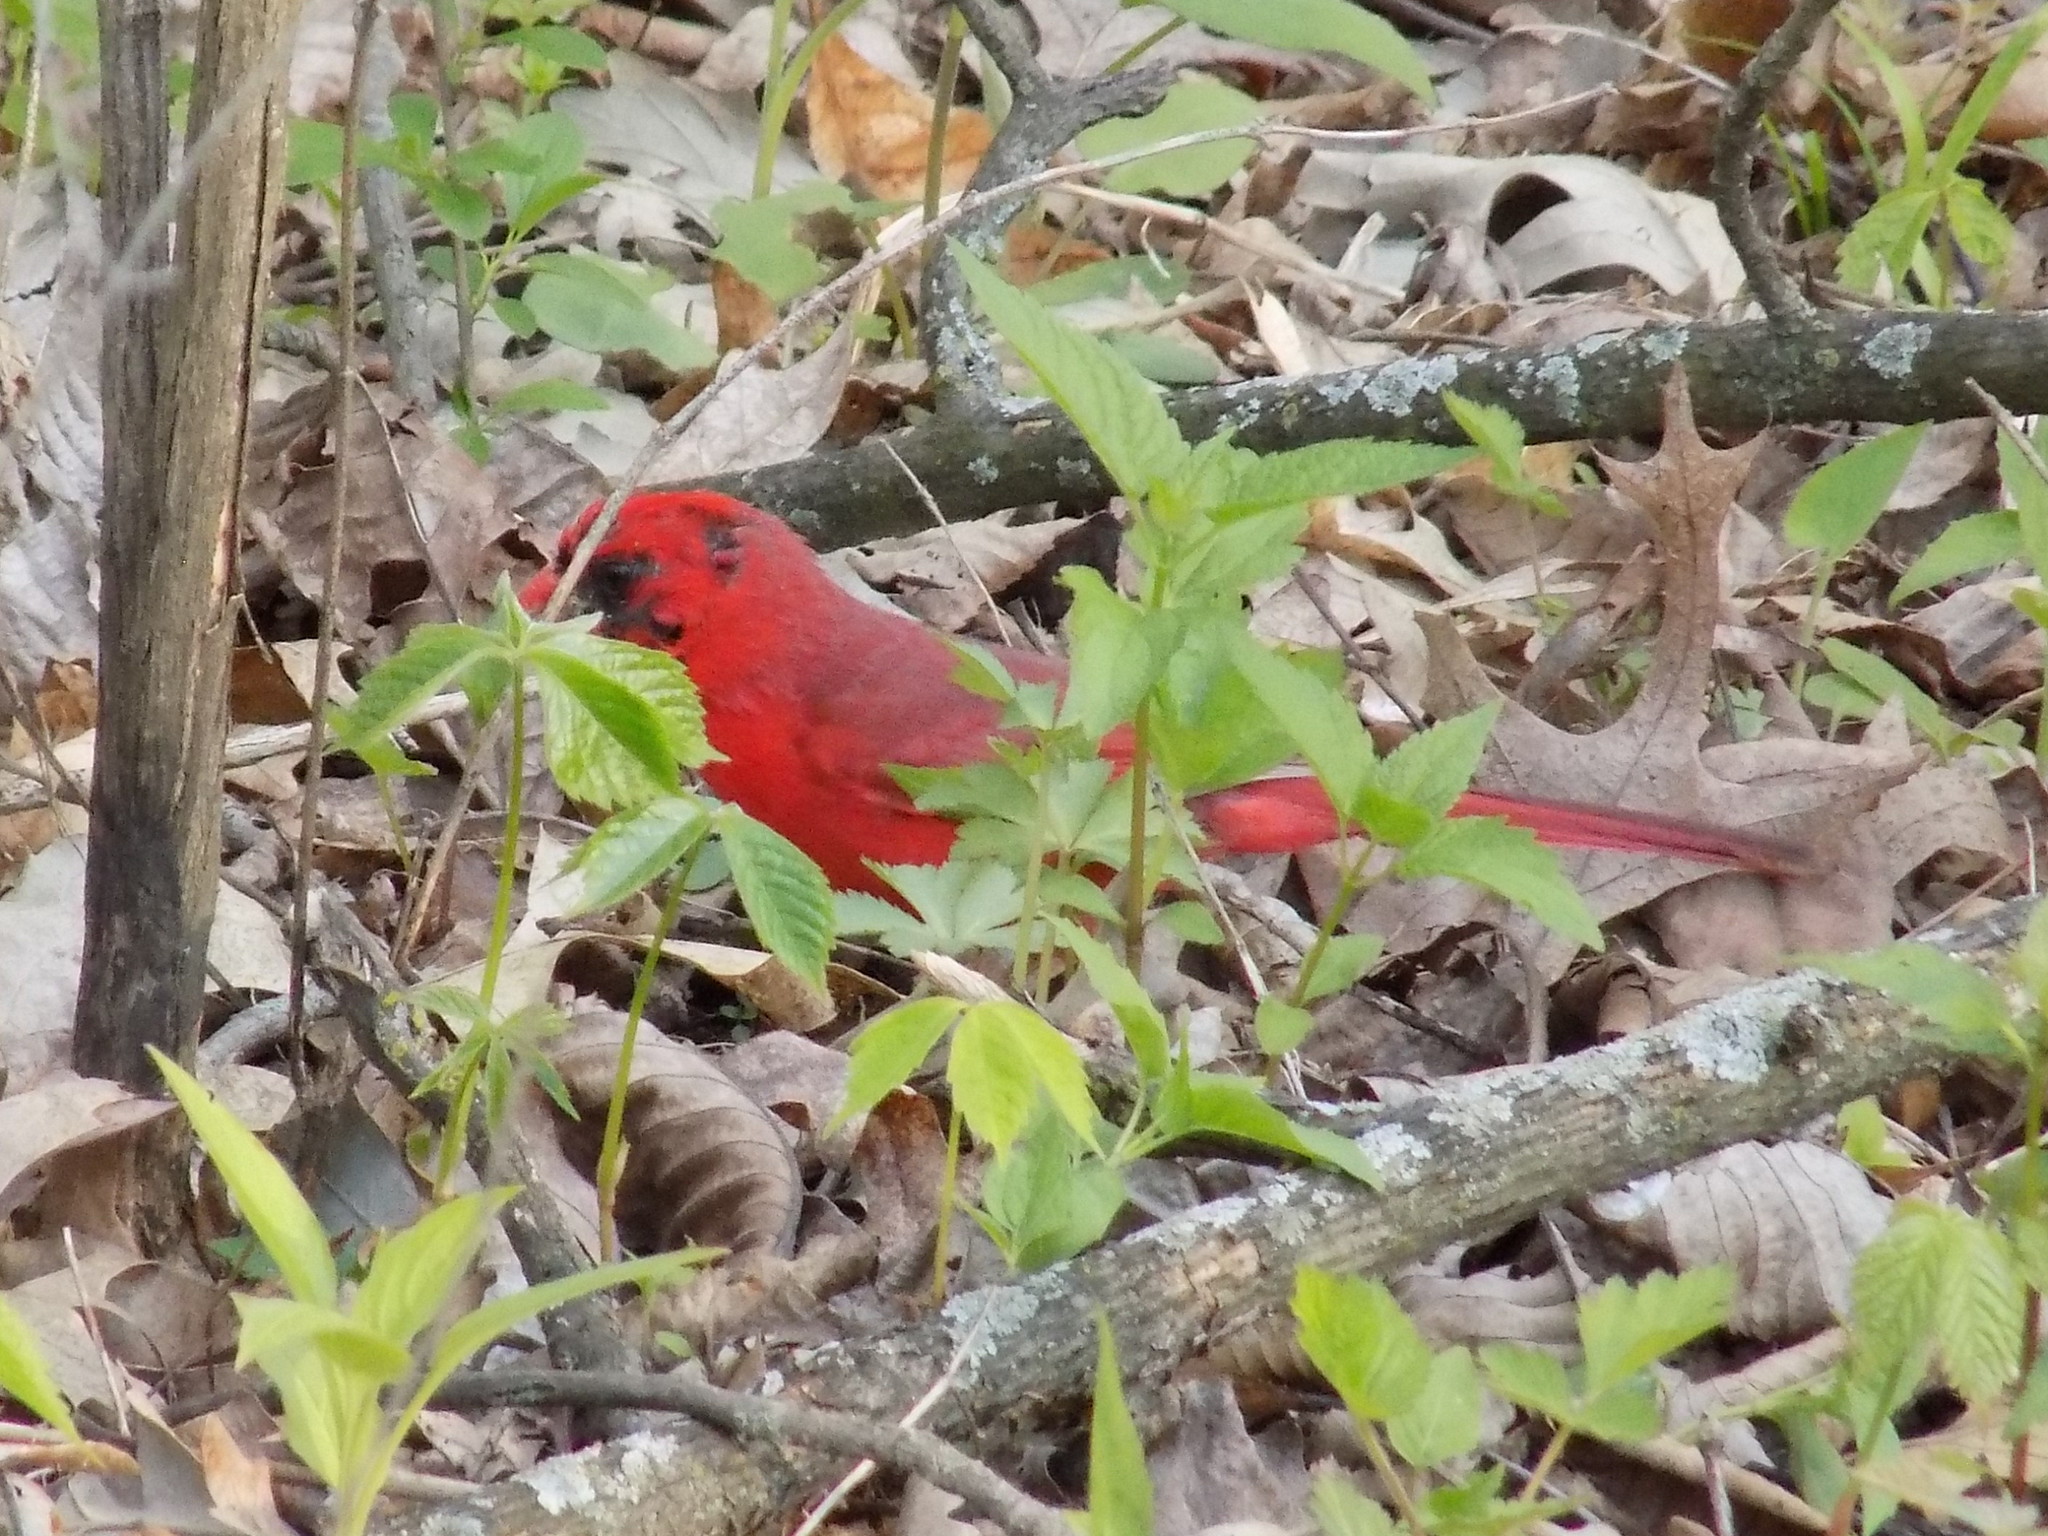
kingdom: Animalia
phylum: Chordata
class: Aves
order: Passeriformes
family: Cardinalidae
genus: Cardinalis
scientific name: Cardinalis cardinalis
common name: Northern cardinal
